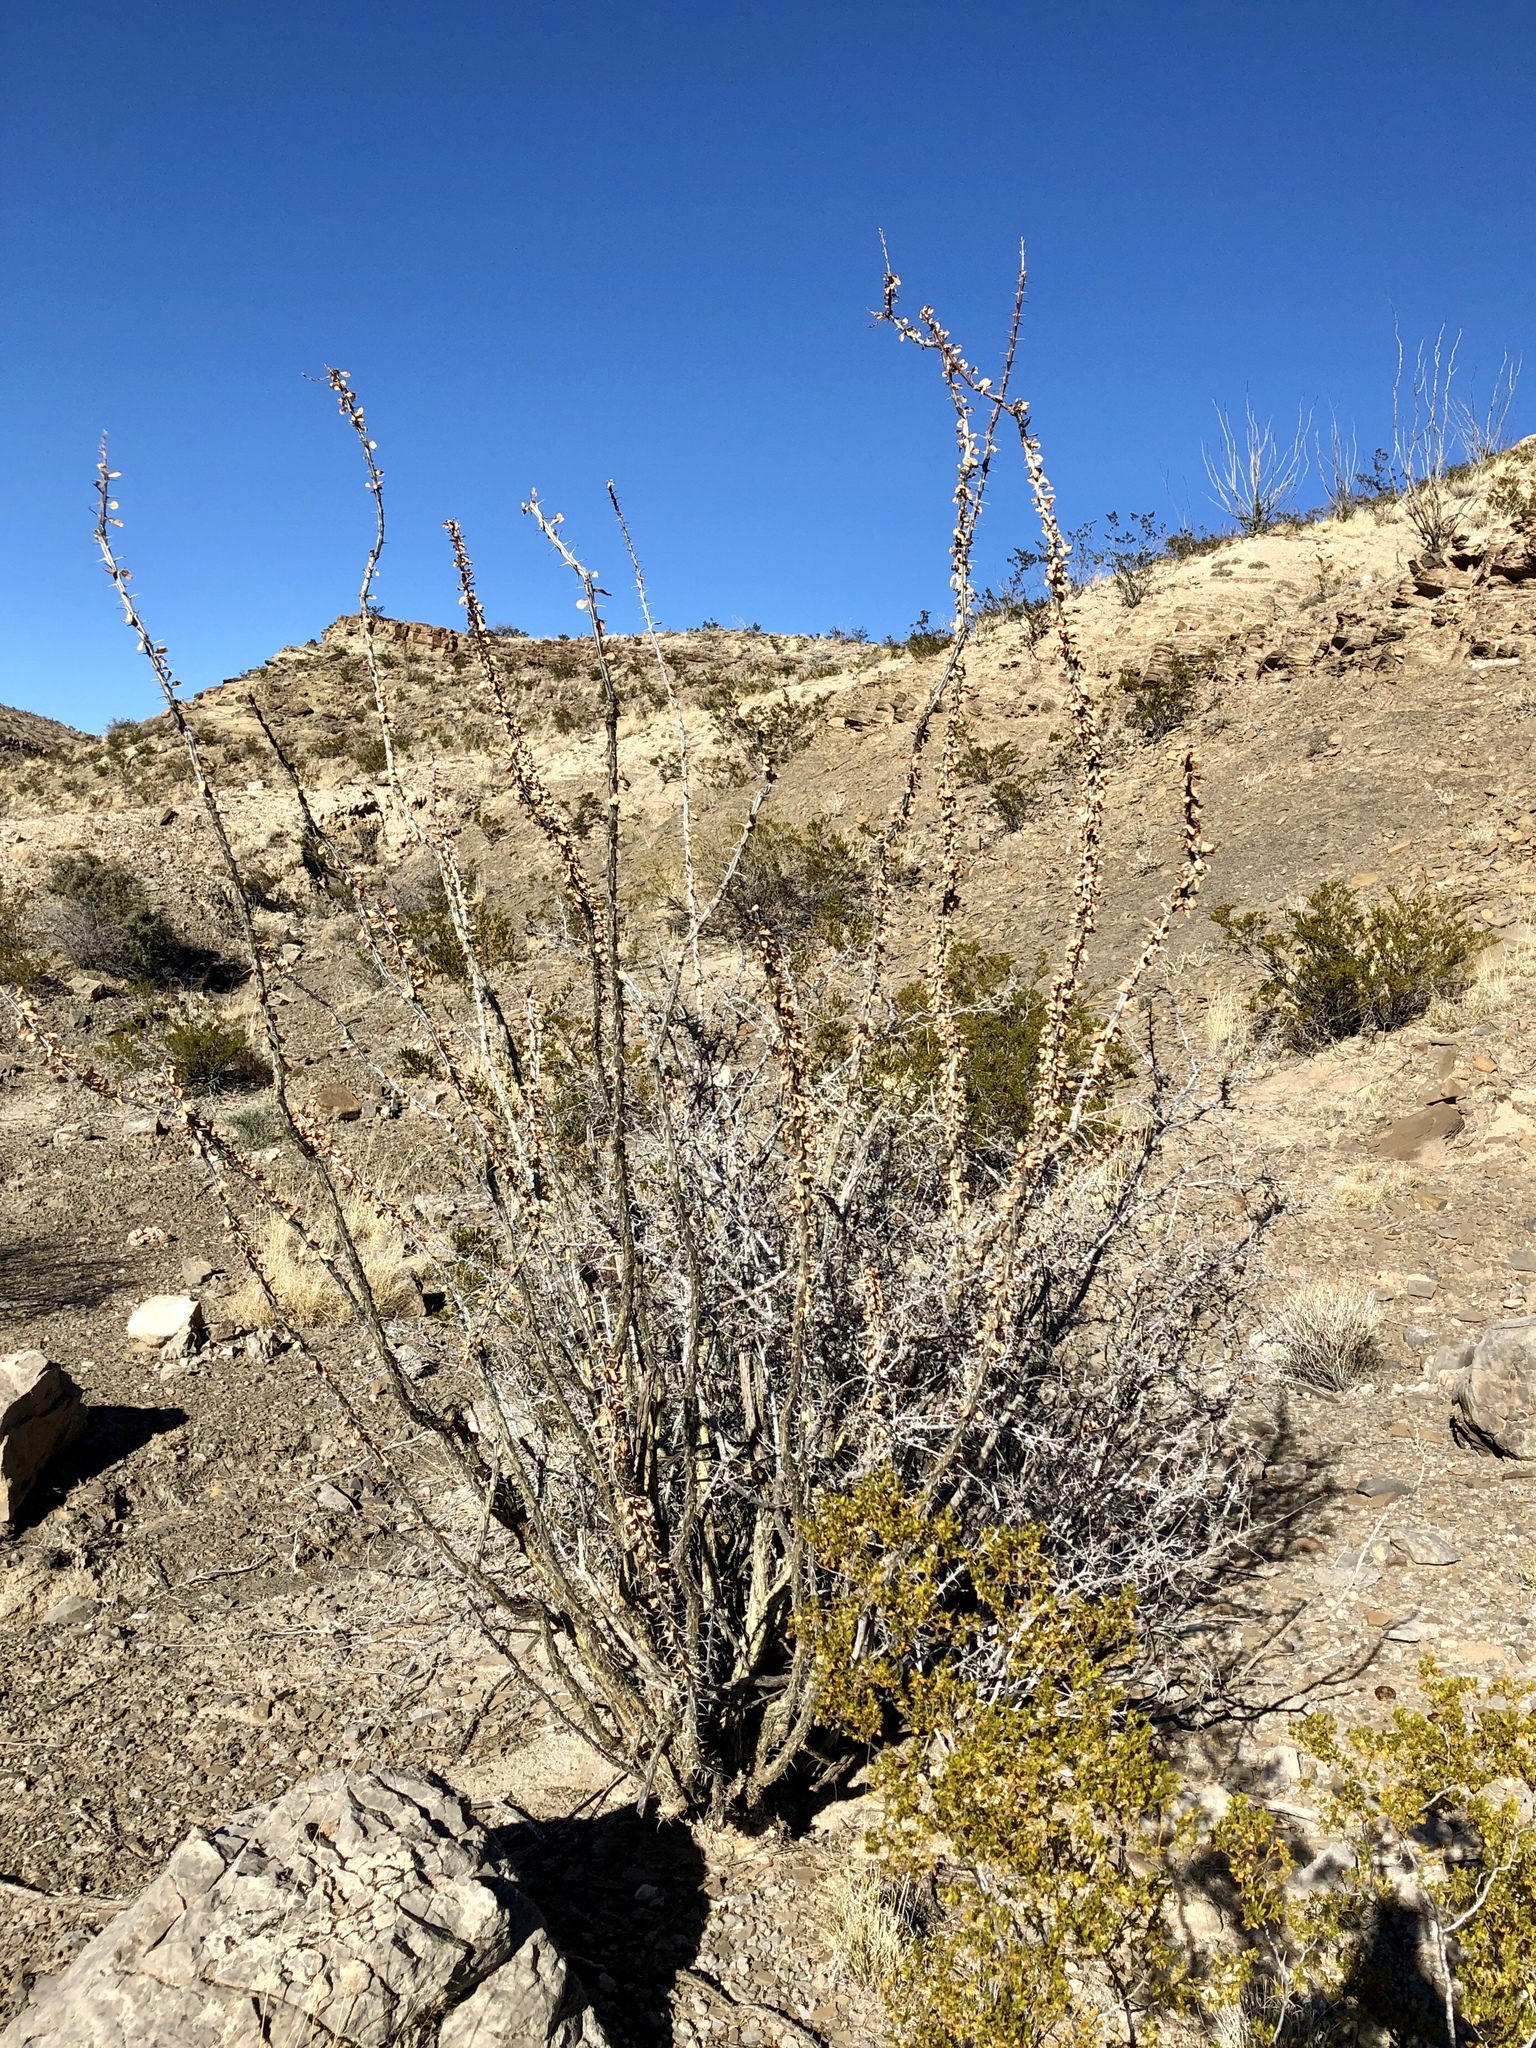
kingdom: Plantae
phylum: Tracheophyta
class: Magnoliopsida
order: Ericales
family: Fouquieriaceae
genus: Fouquieria
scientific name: Fouquieria splendens
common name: Vine-cactus
